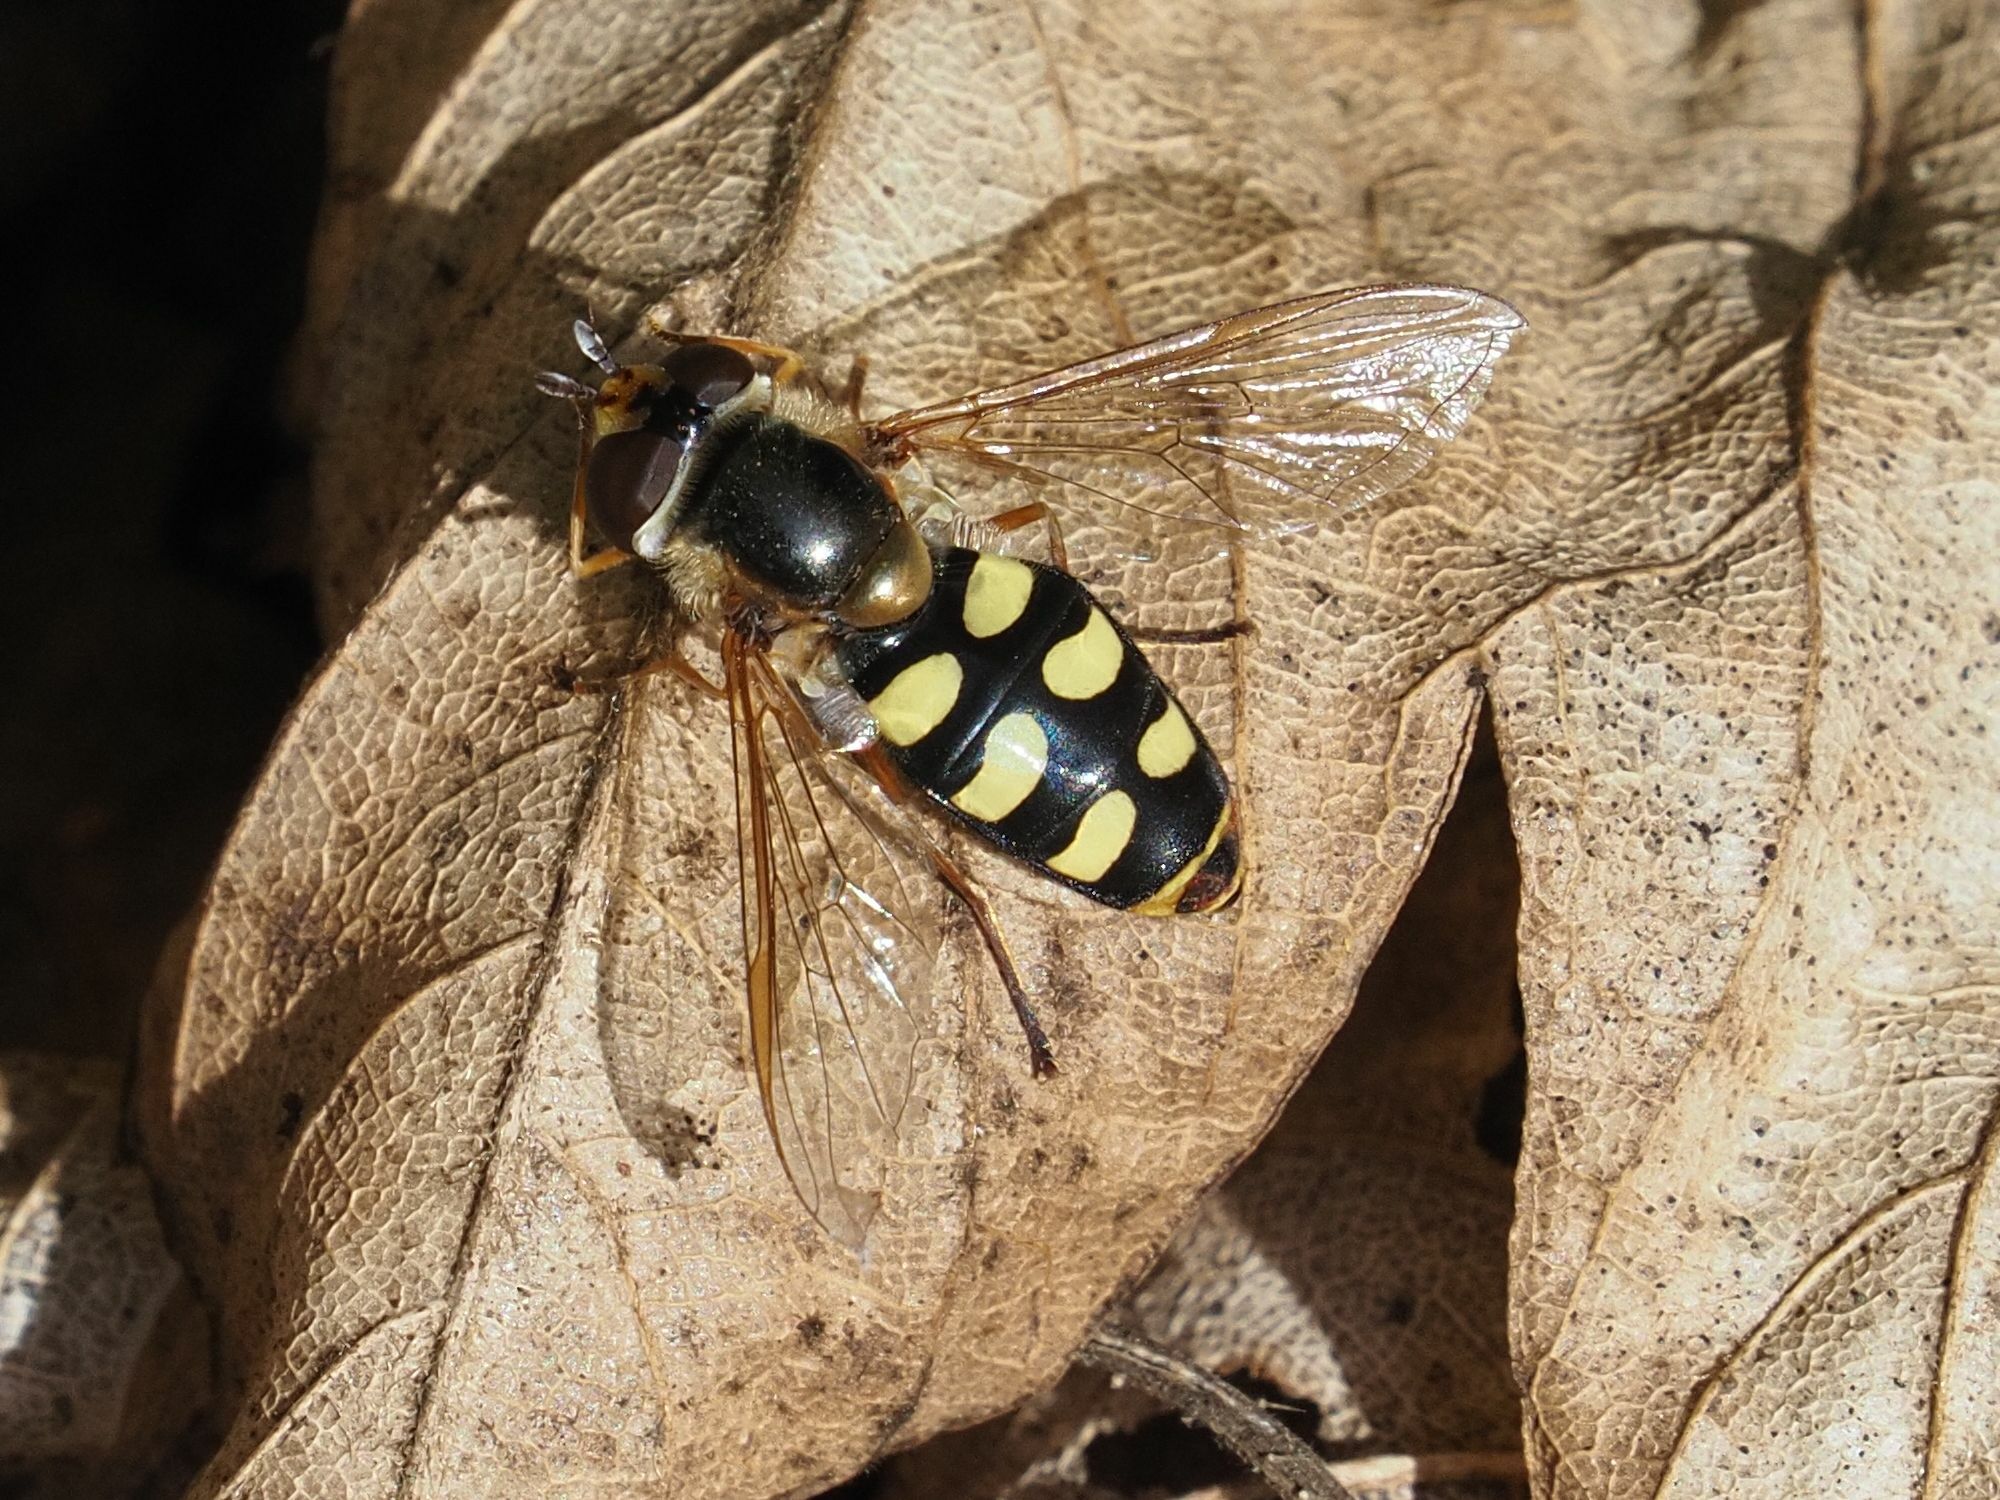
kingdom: Animalia
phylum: Arthropoda
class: Insecta
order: Diptera
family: Syrphidae
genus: Eupeodes
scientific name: Eupeodes luniger
